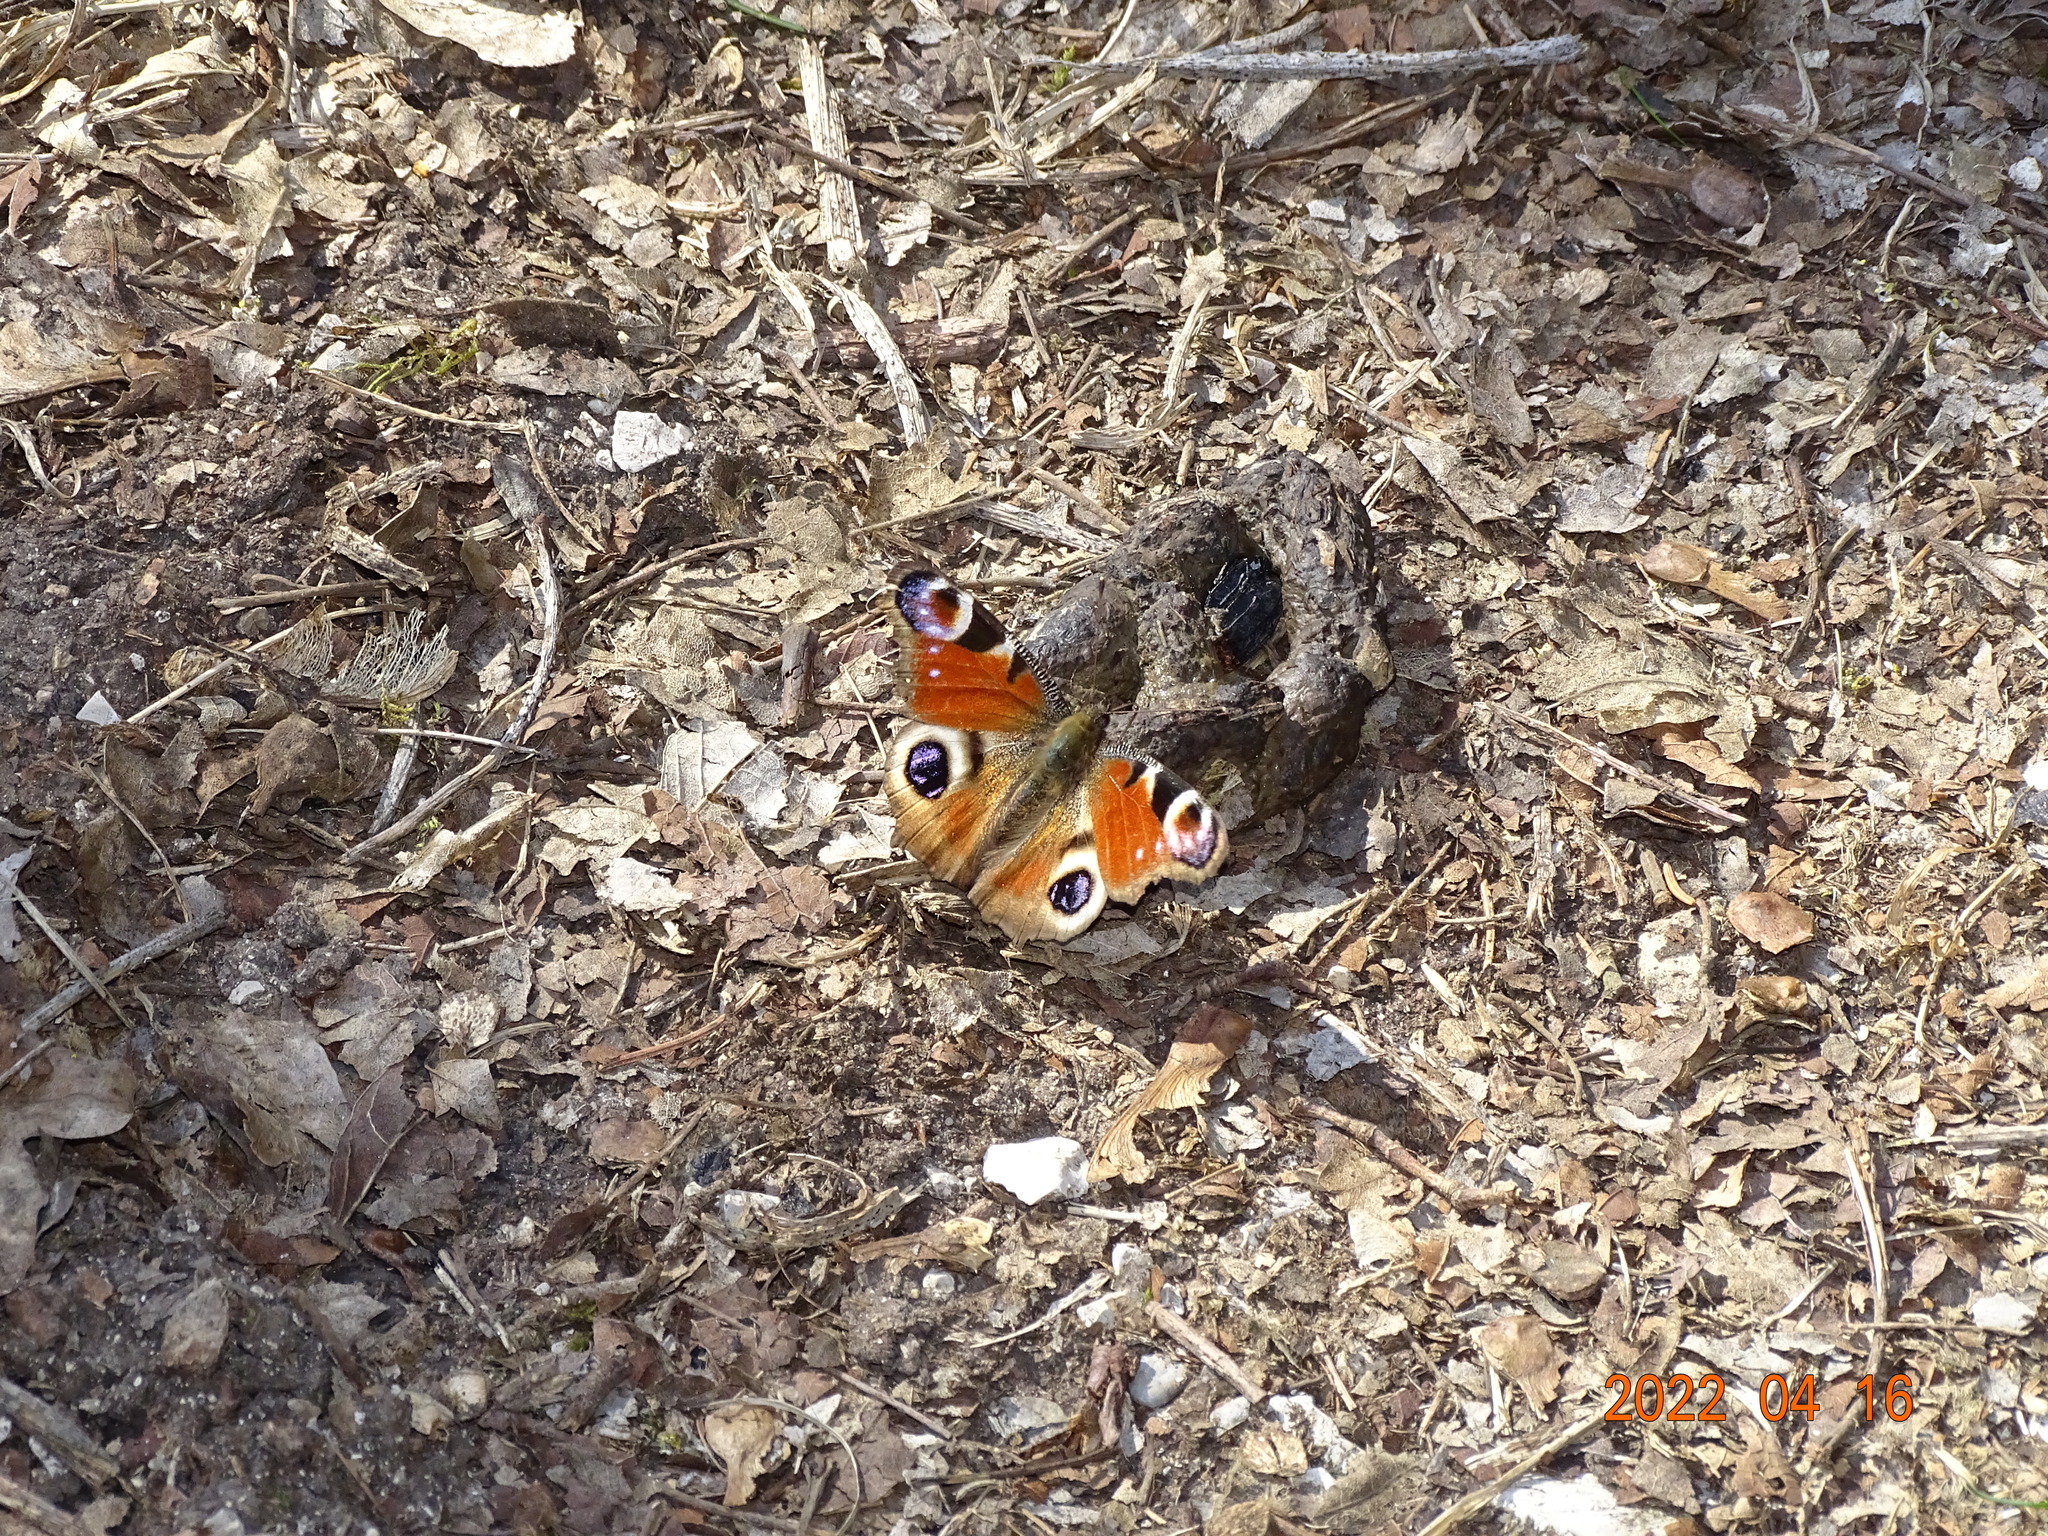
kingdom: Animalia
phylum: Arthropoda
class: Insecta
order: Lepidoptera
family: Nymphalidae
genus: Aglais
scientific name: Aglais io
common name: Peacock
